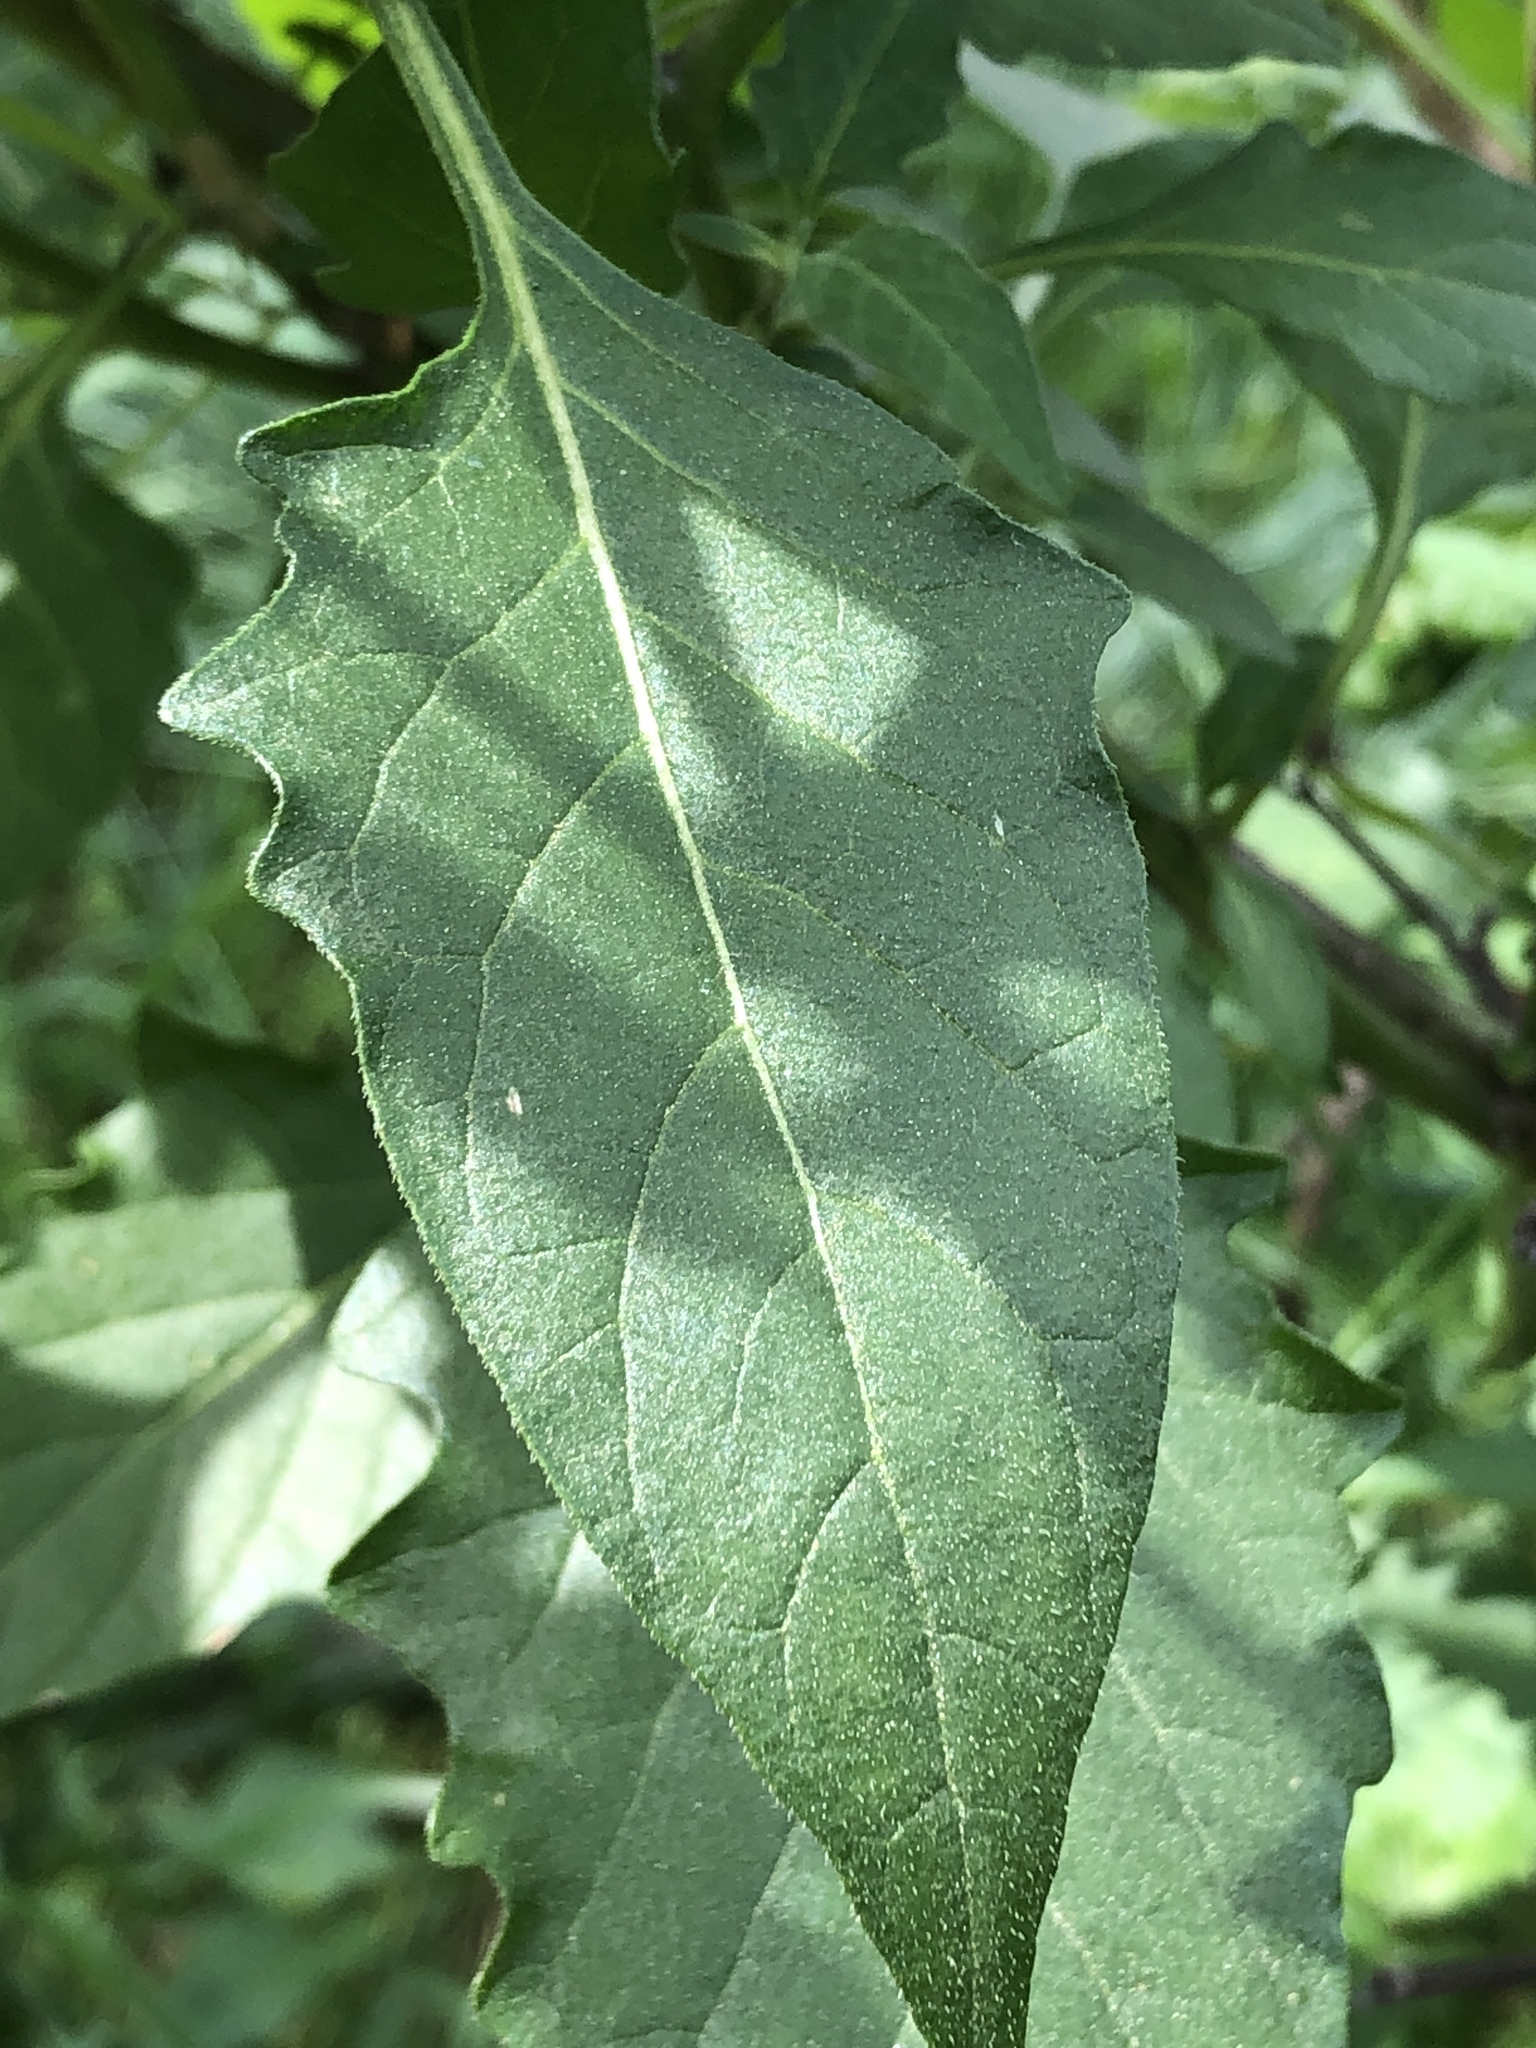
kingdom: Plantae
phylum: Tracheophyta
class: Magnoliopsida
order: Solanales
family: Solanaceae
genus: Solanum
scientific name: Solanum douglasii
